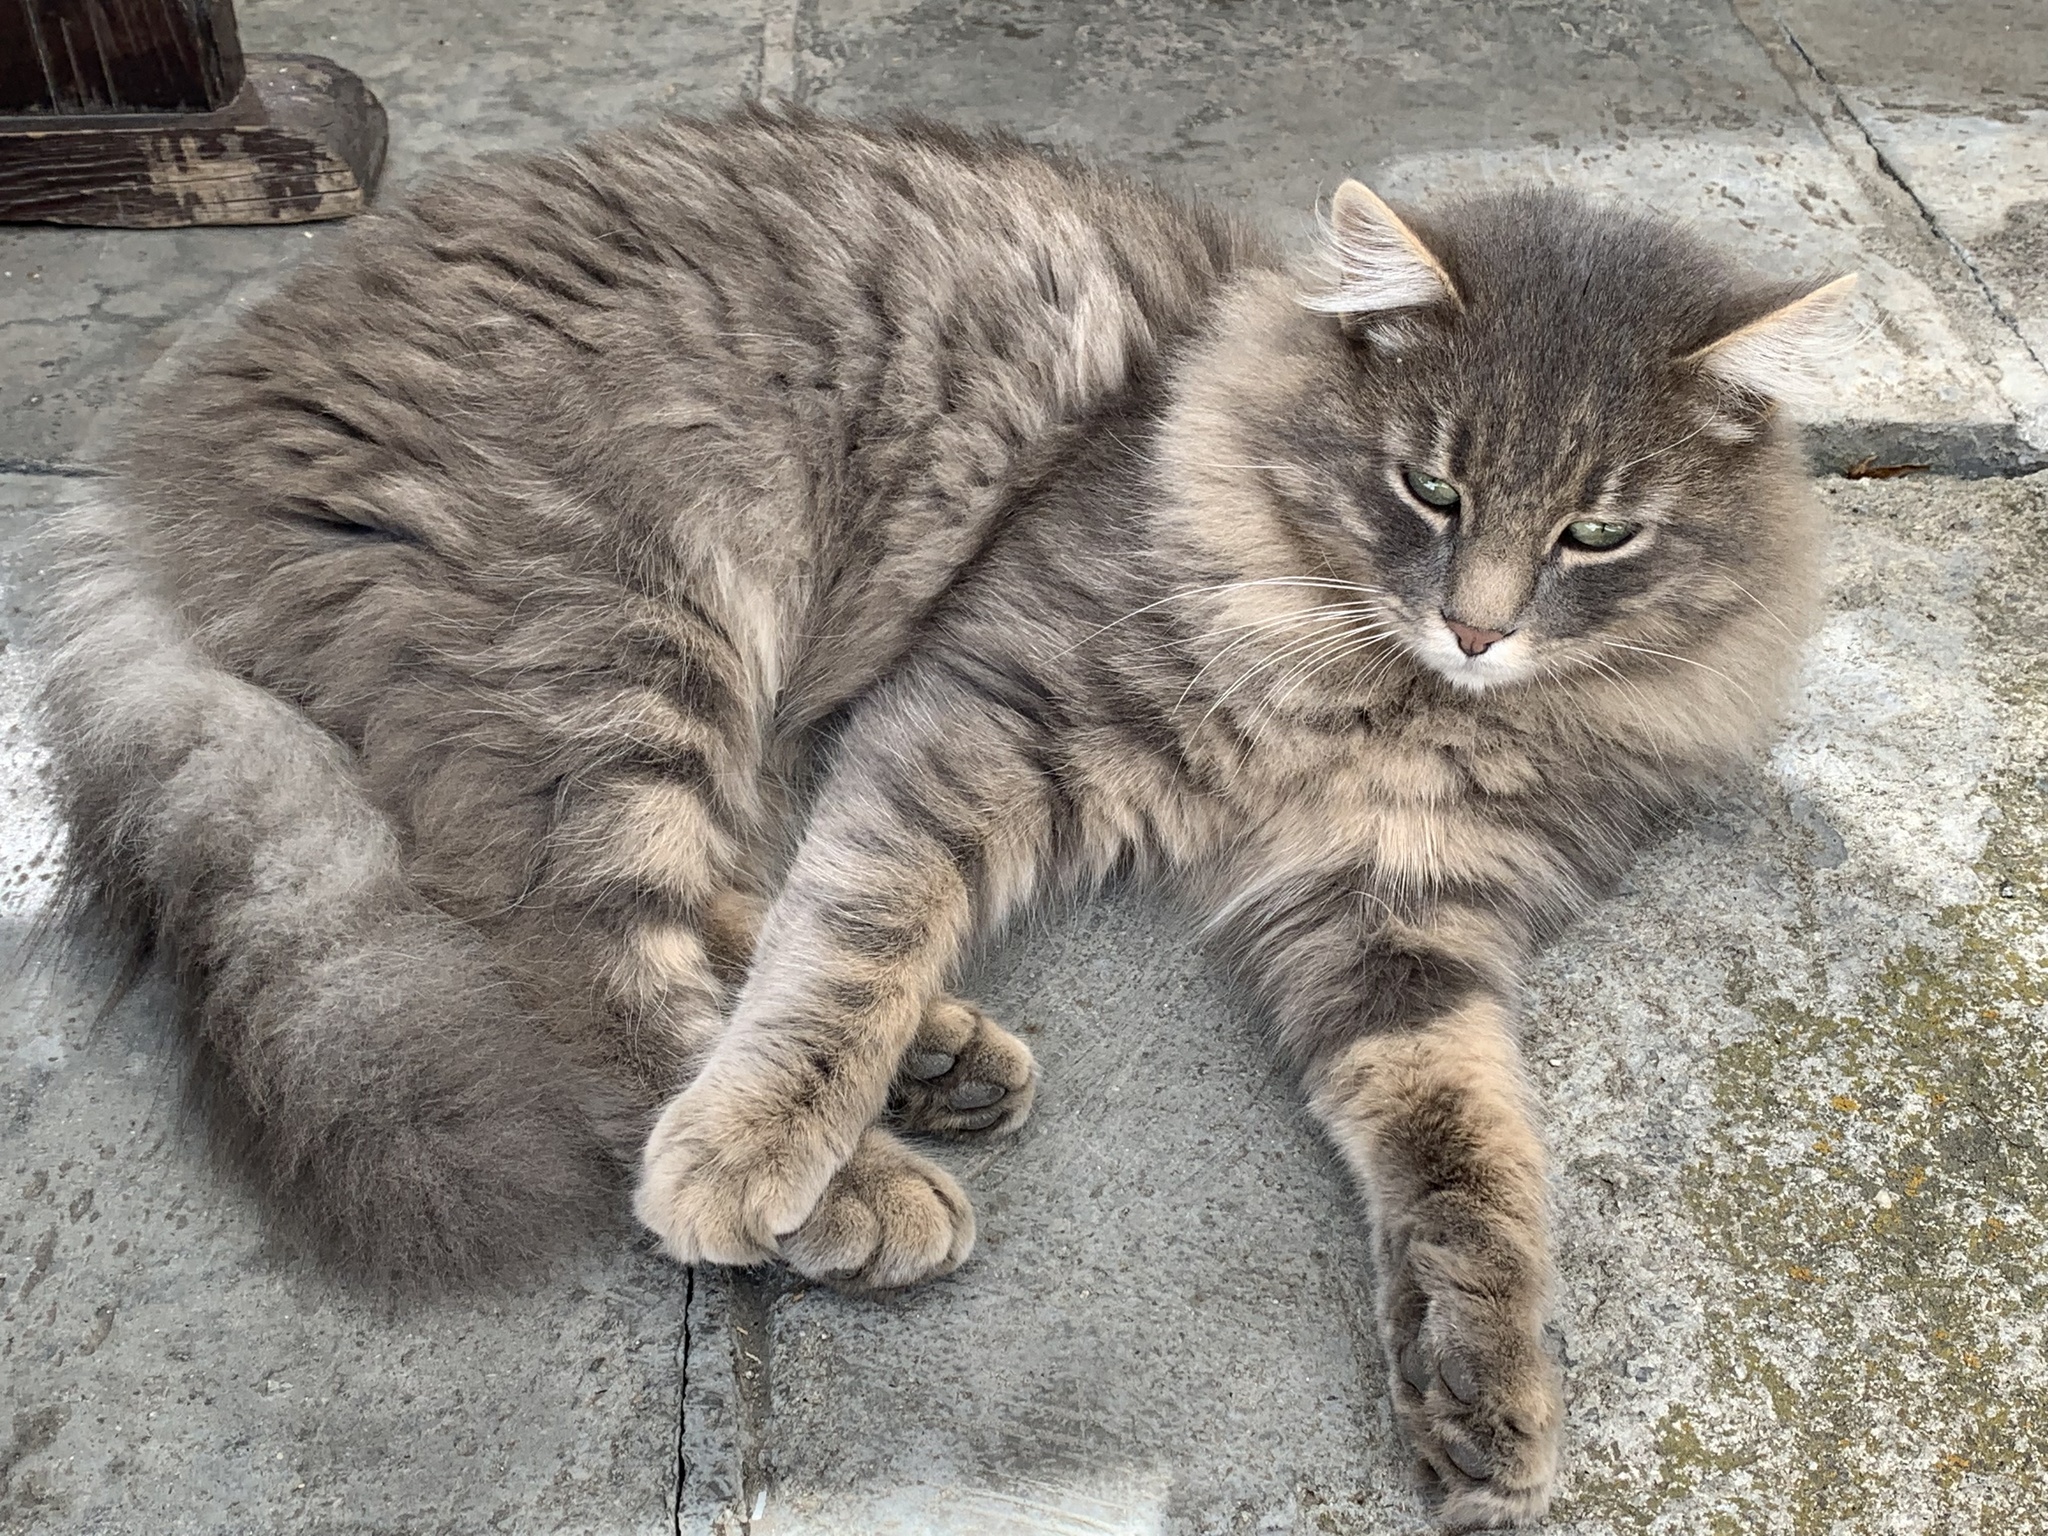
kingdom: Animalia
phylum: Chordata
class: Mammalia
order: Carnivora
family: Felidae
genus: Felis
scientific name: Felis catus
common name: Domestic cat
